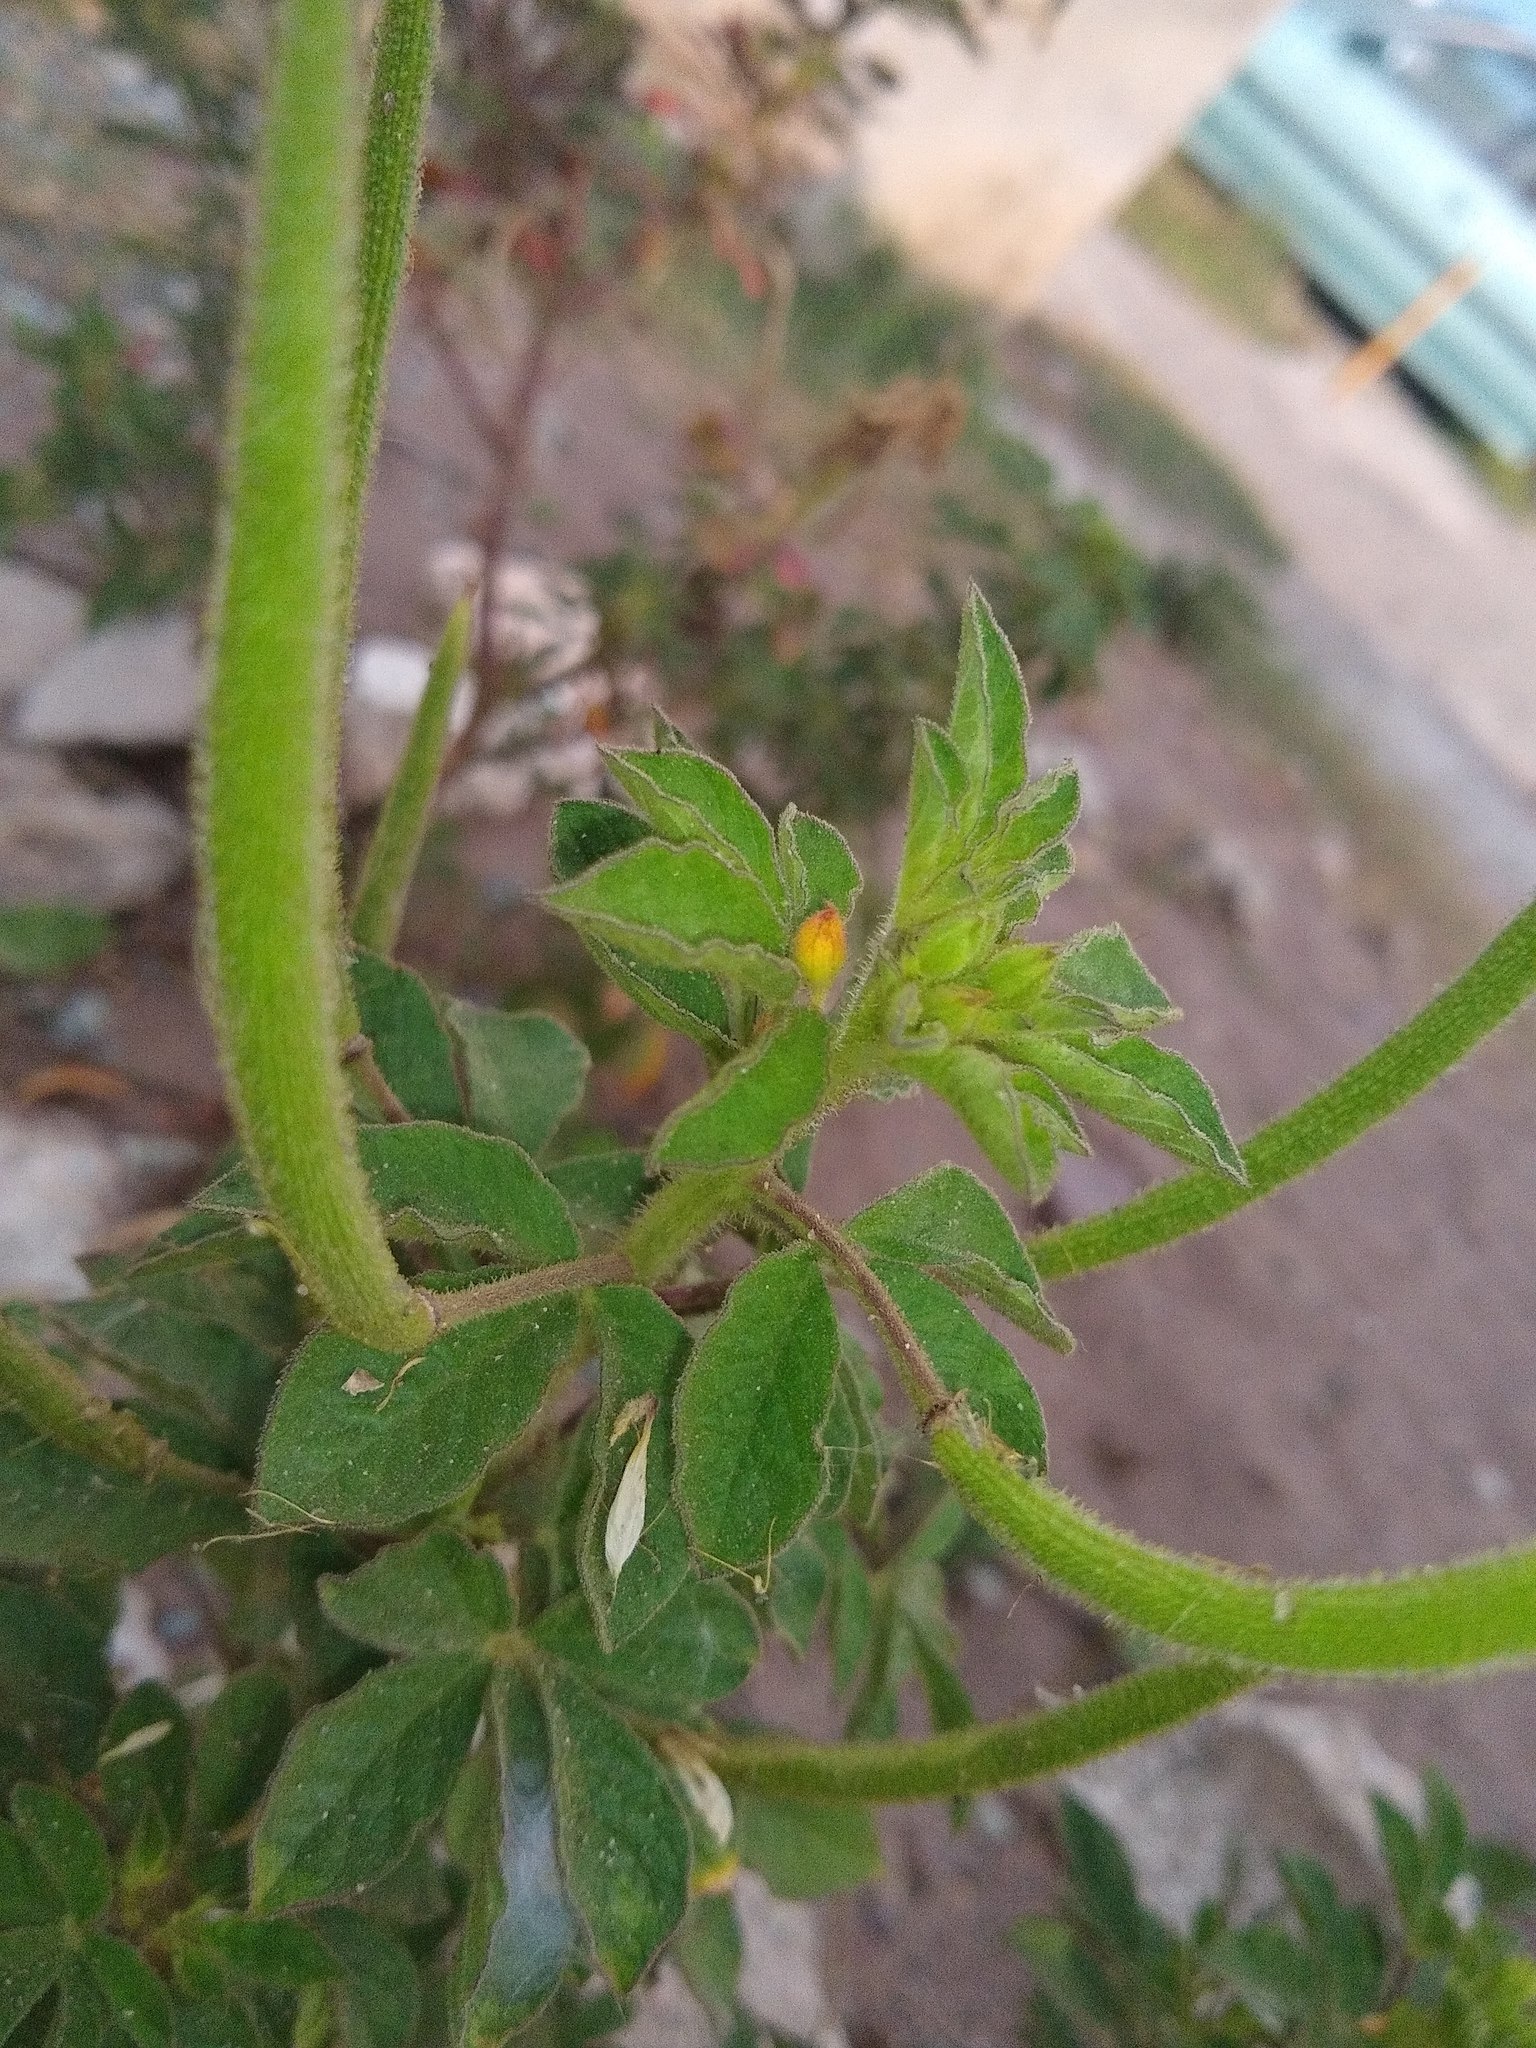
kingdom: Plantae
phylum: Tracheophyta
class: Magnoliopsida
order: Brassicales
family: Cleomaceae
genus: Arivela
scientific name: Arivela viscosa
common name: Asian spiderflower
